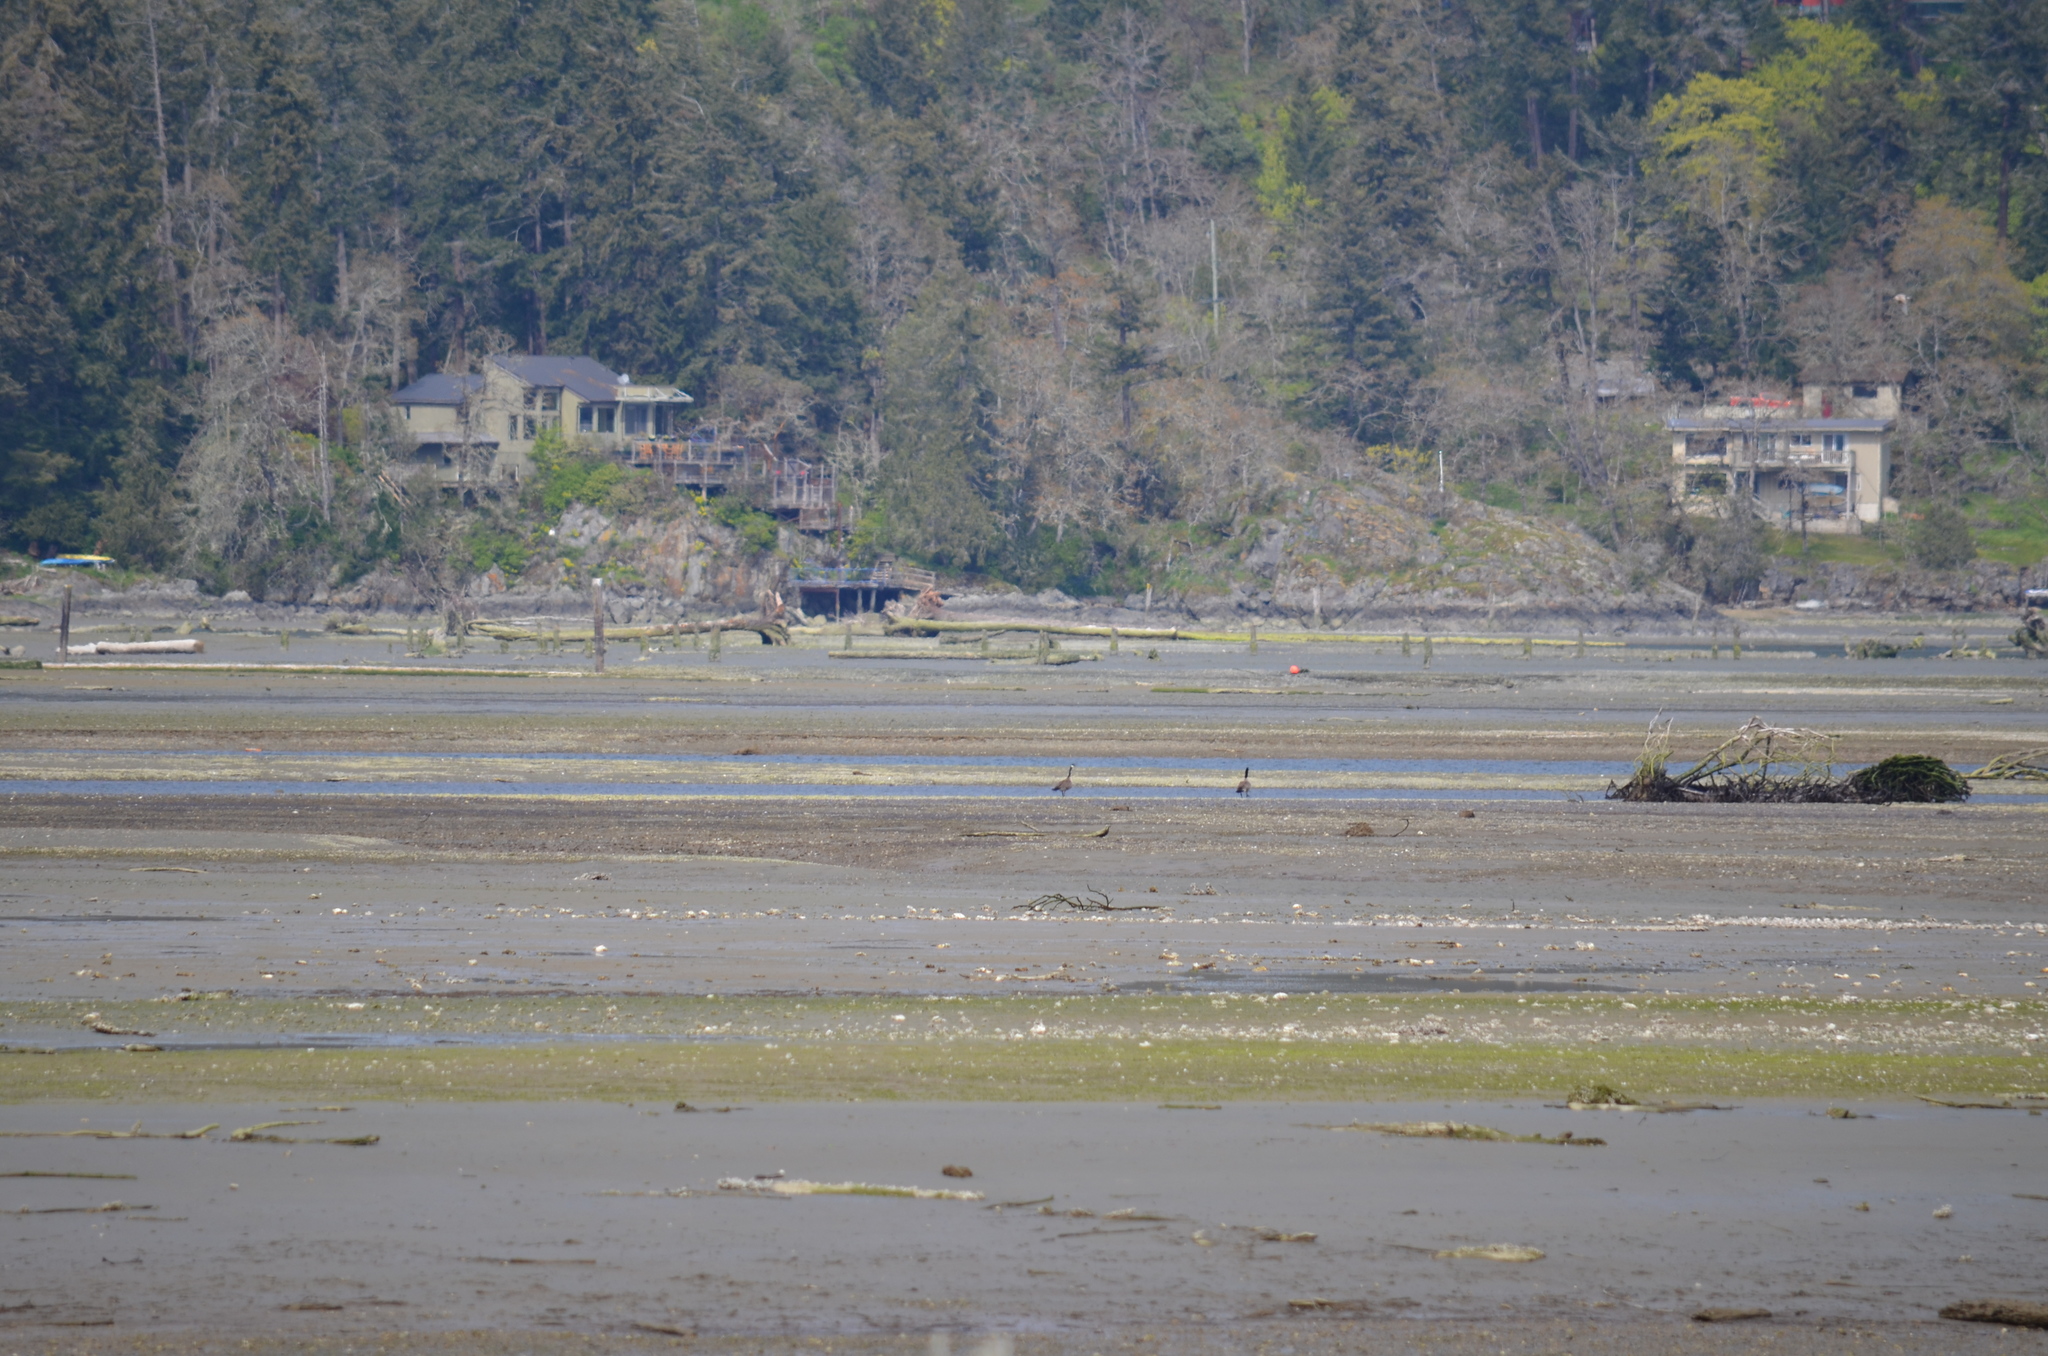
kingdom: Animalia
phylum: Chordata
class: Aves
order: Anseriformes
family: Anatidae
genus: Branta
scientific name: Branta canadensis
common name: Canada goose
